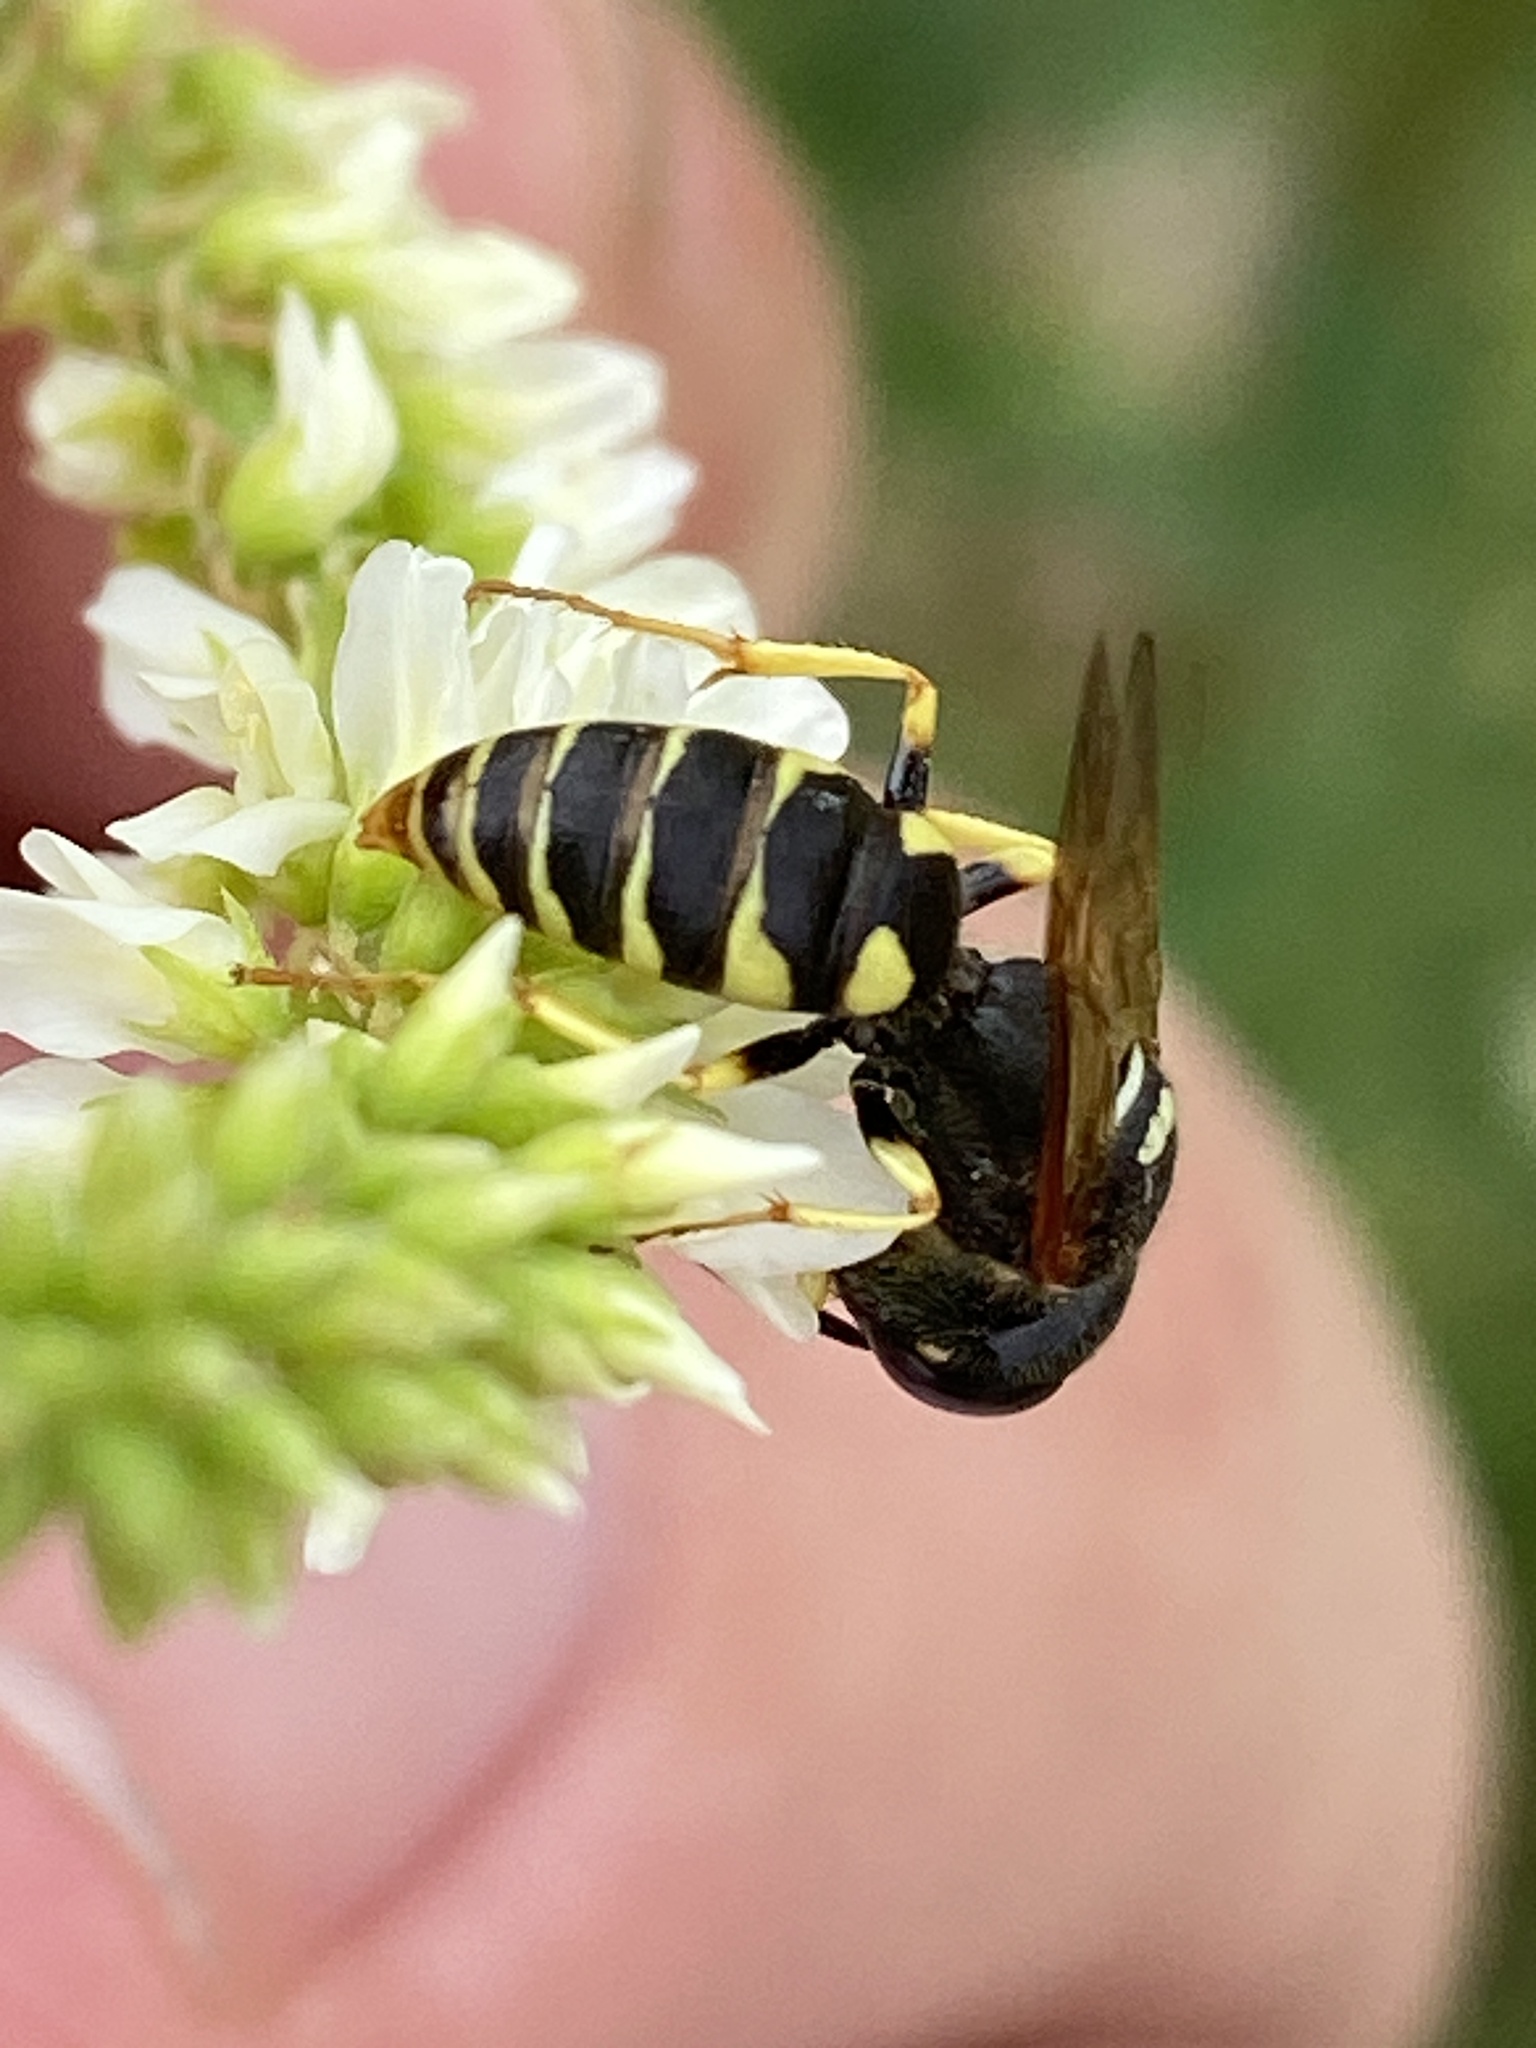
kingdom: Animalia
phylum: Arthropoda
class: Insecta
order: Hymenoptera
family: Crabronidae
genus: Philanthus
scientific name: Philanthus triangulum
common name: Bee wolf
